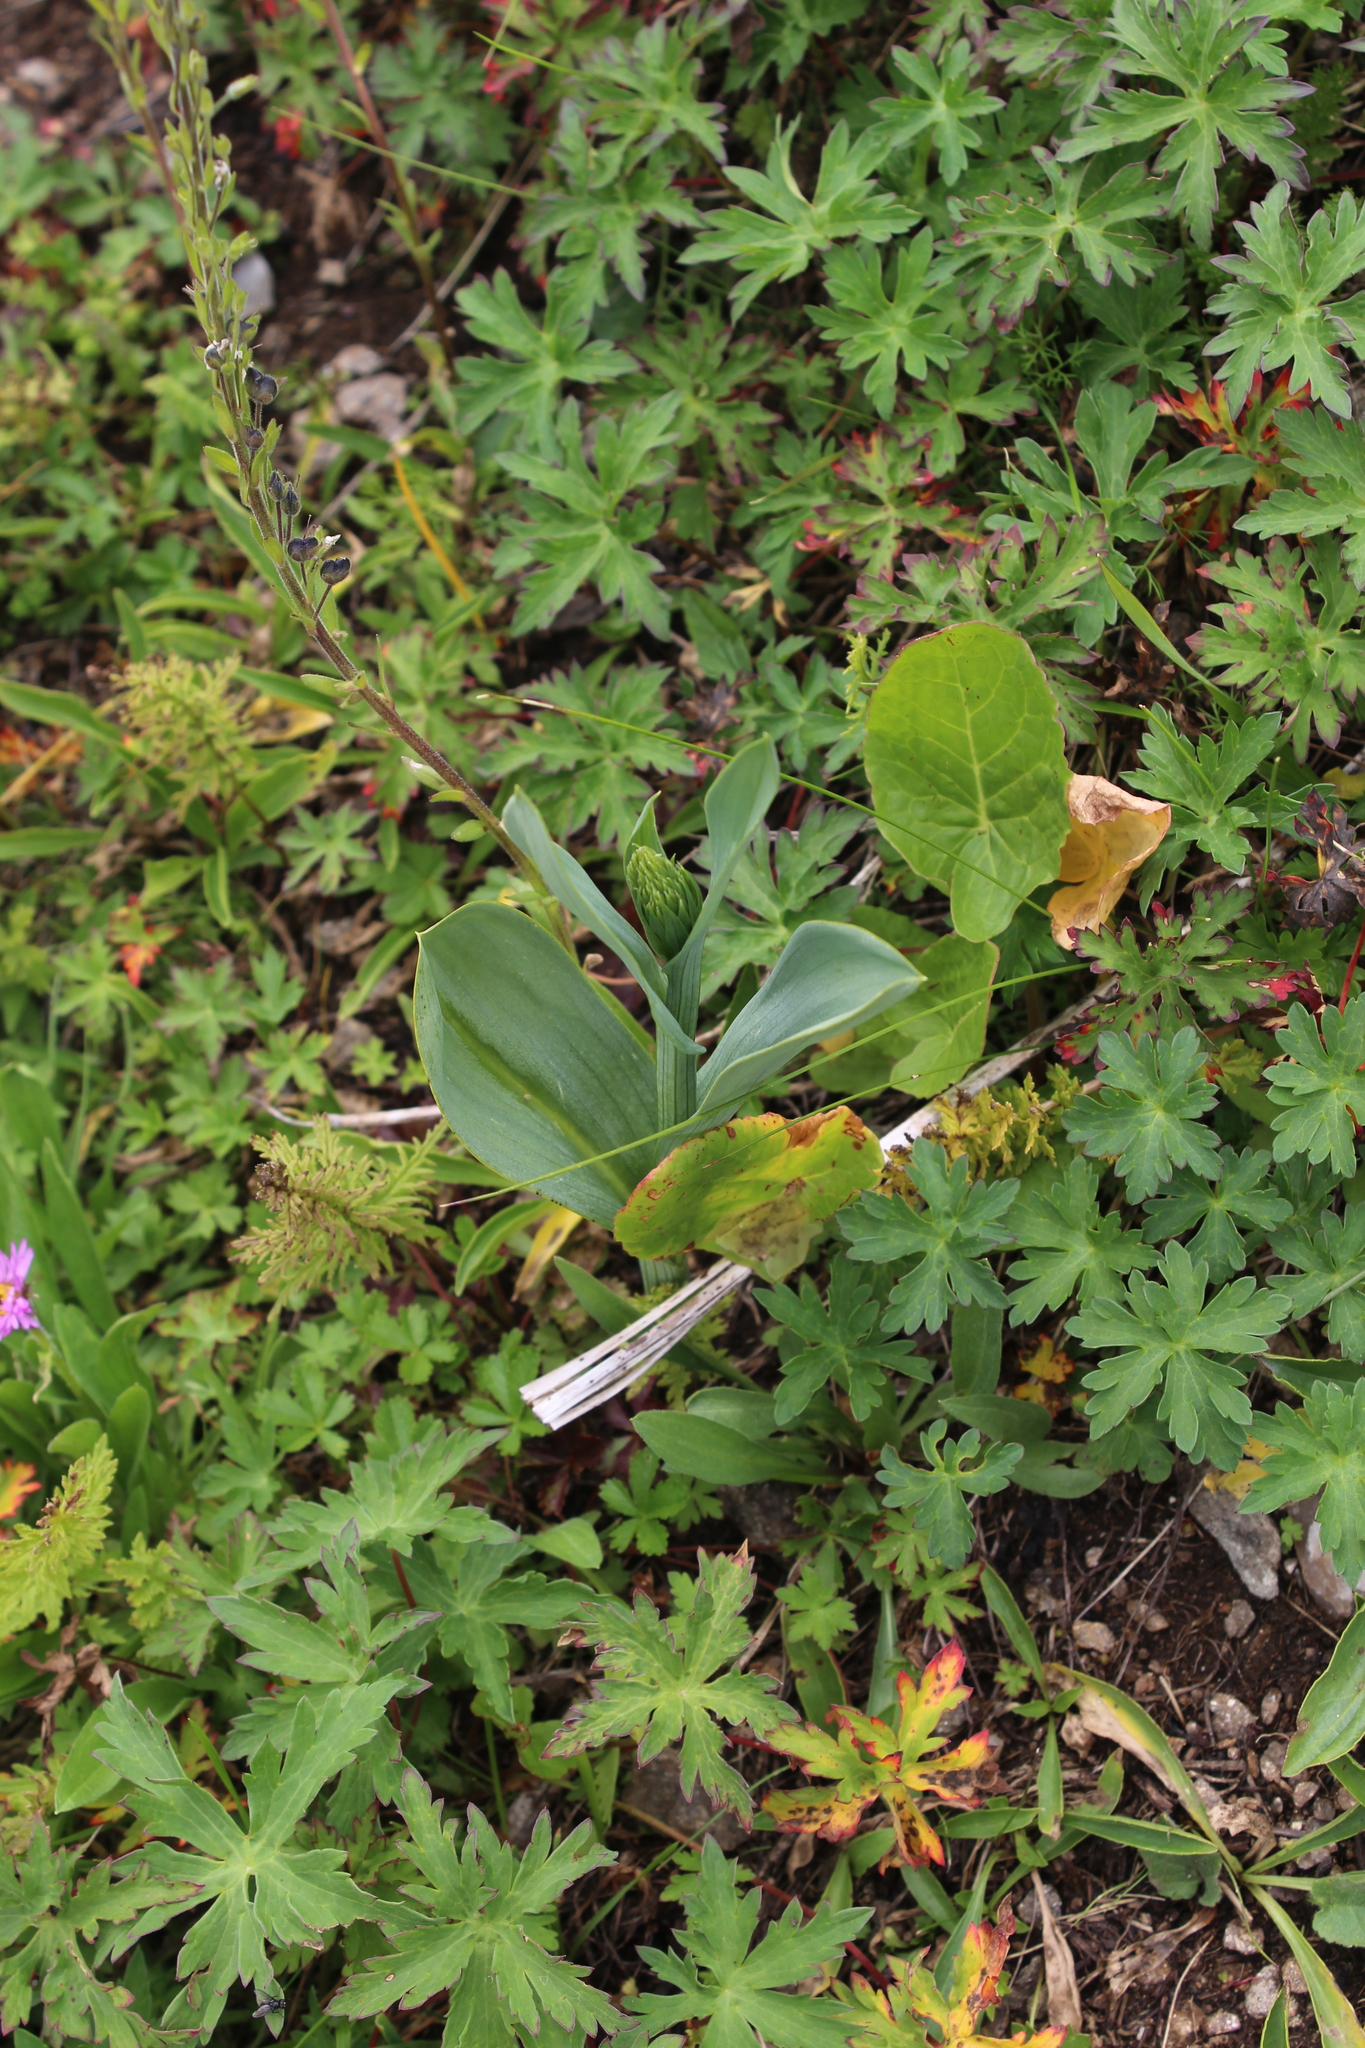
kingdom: Plantae
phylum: Tracheophyta
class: Liliopsida
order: Asparagales
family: Orchidaceae
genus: Traunsteinera
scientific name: Traunsteinera sphaerica
